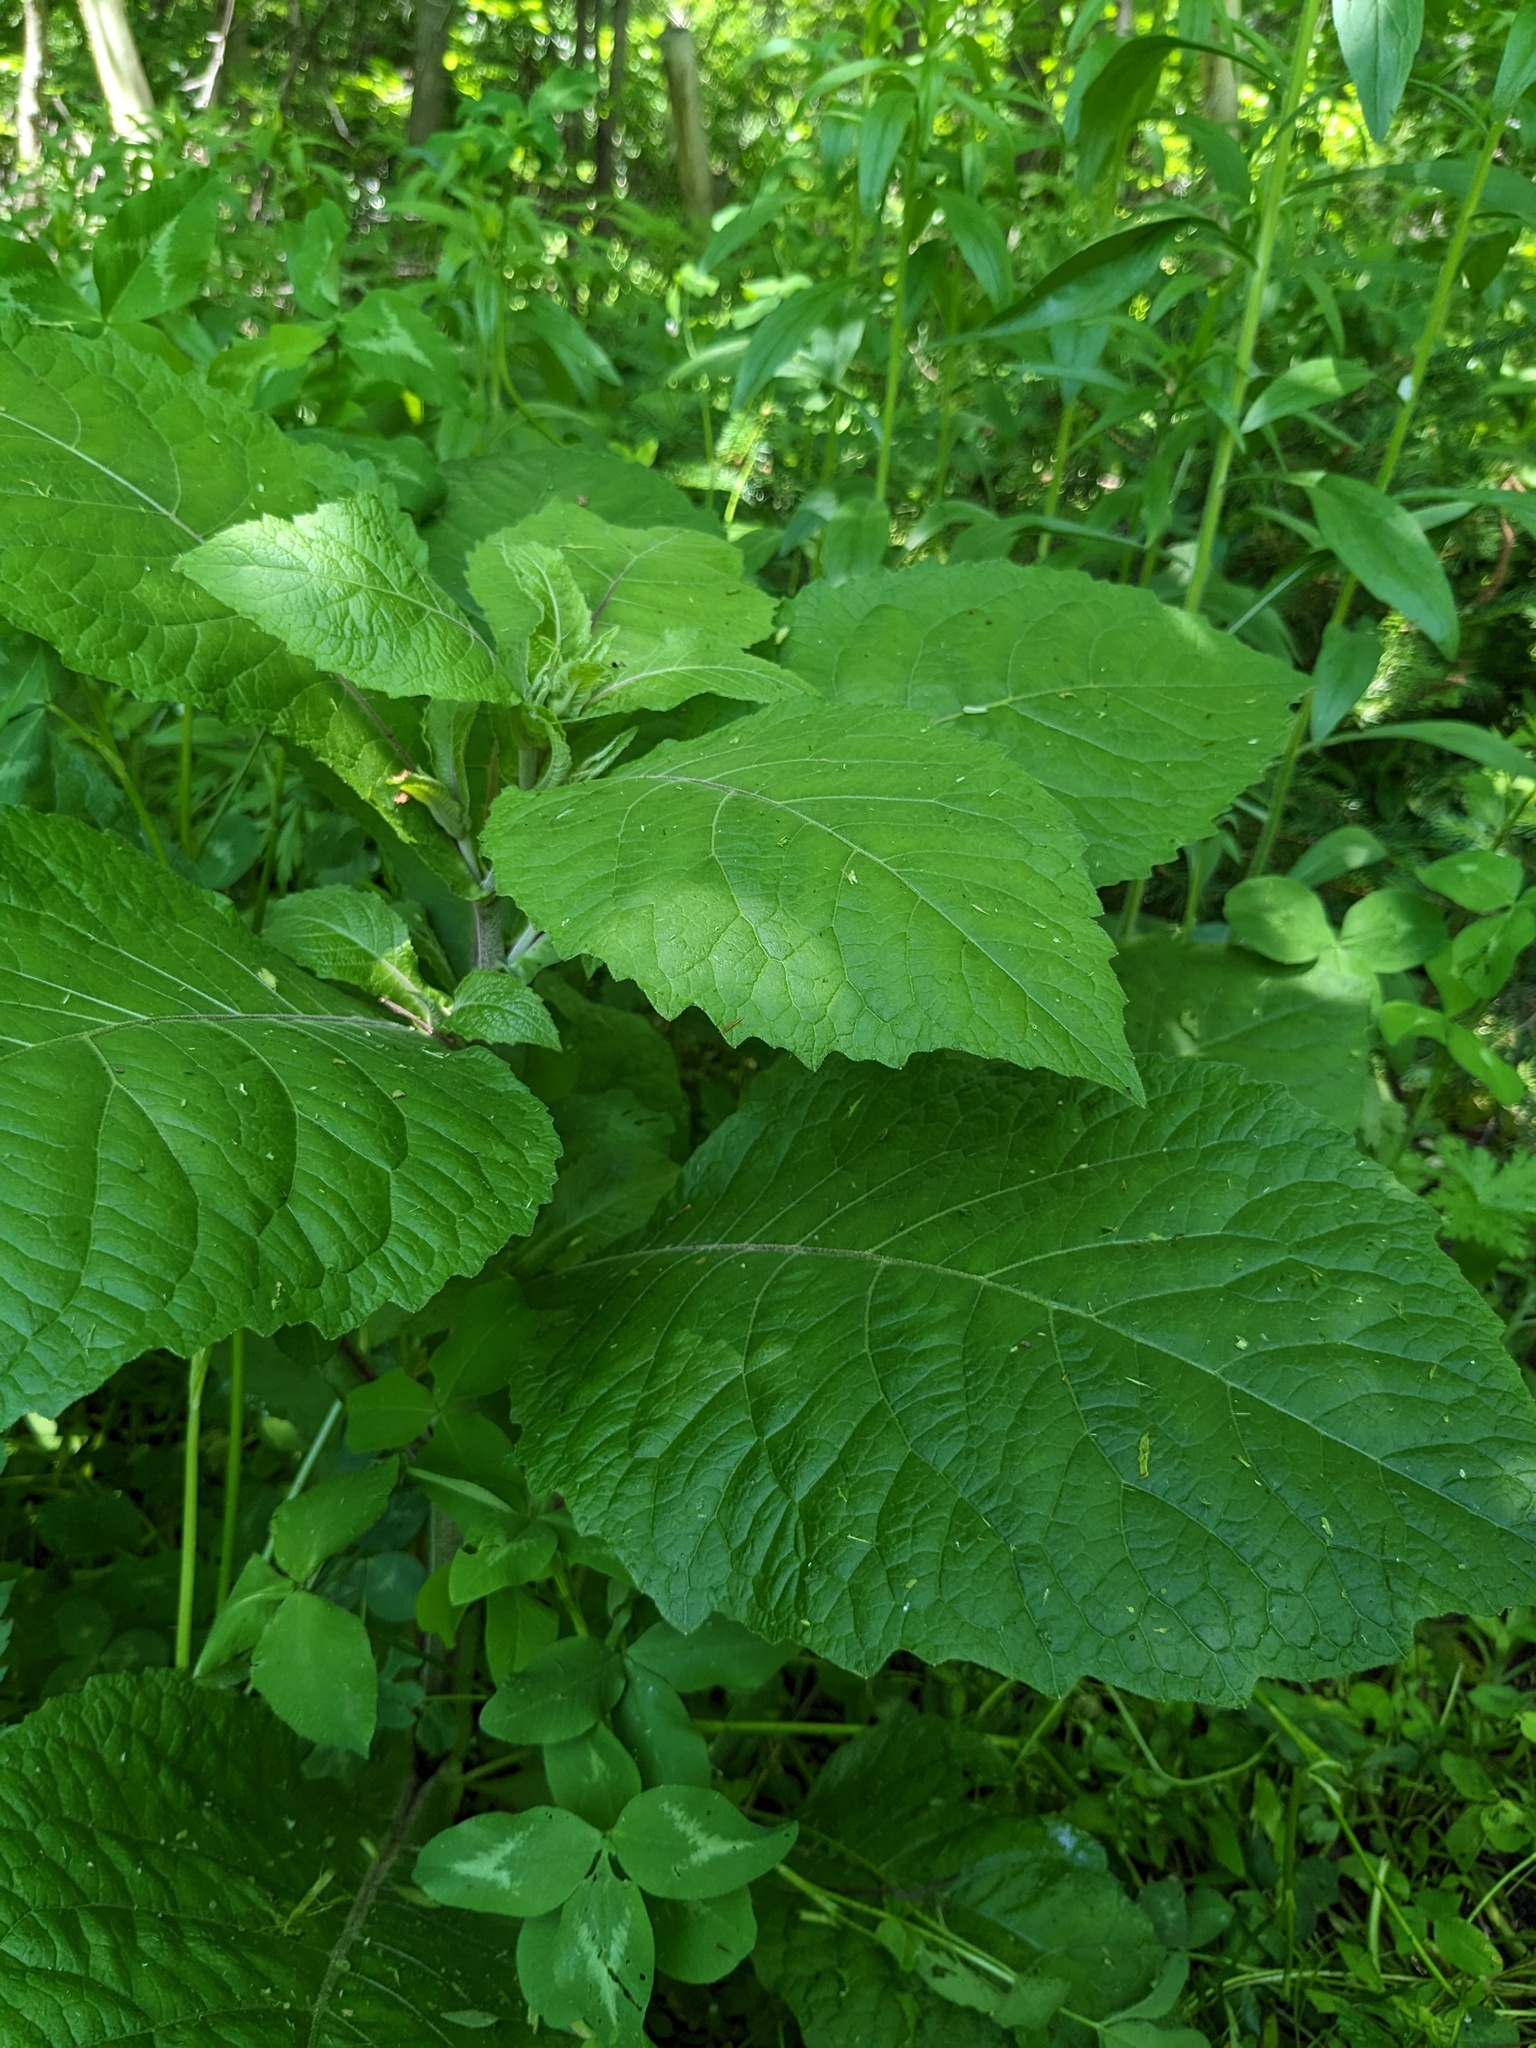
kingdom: Plantae
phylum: Tracheophyta
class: Magnoliopsida
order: Asterales
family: Asteraceae
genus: Carpesium
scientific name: Carpesium macrocephalum
